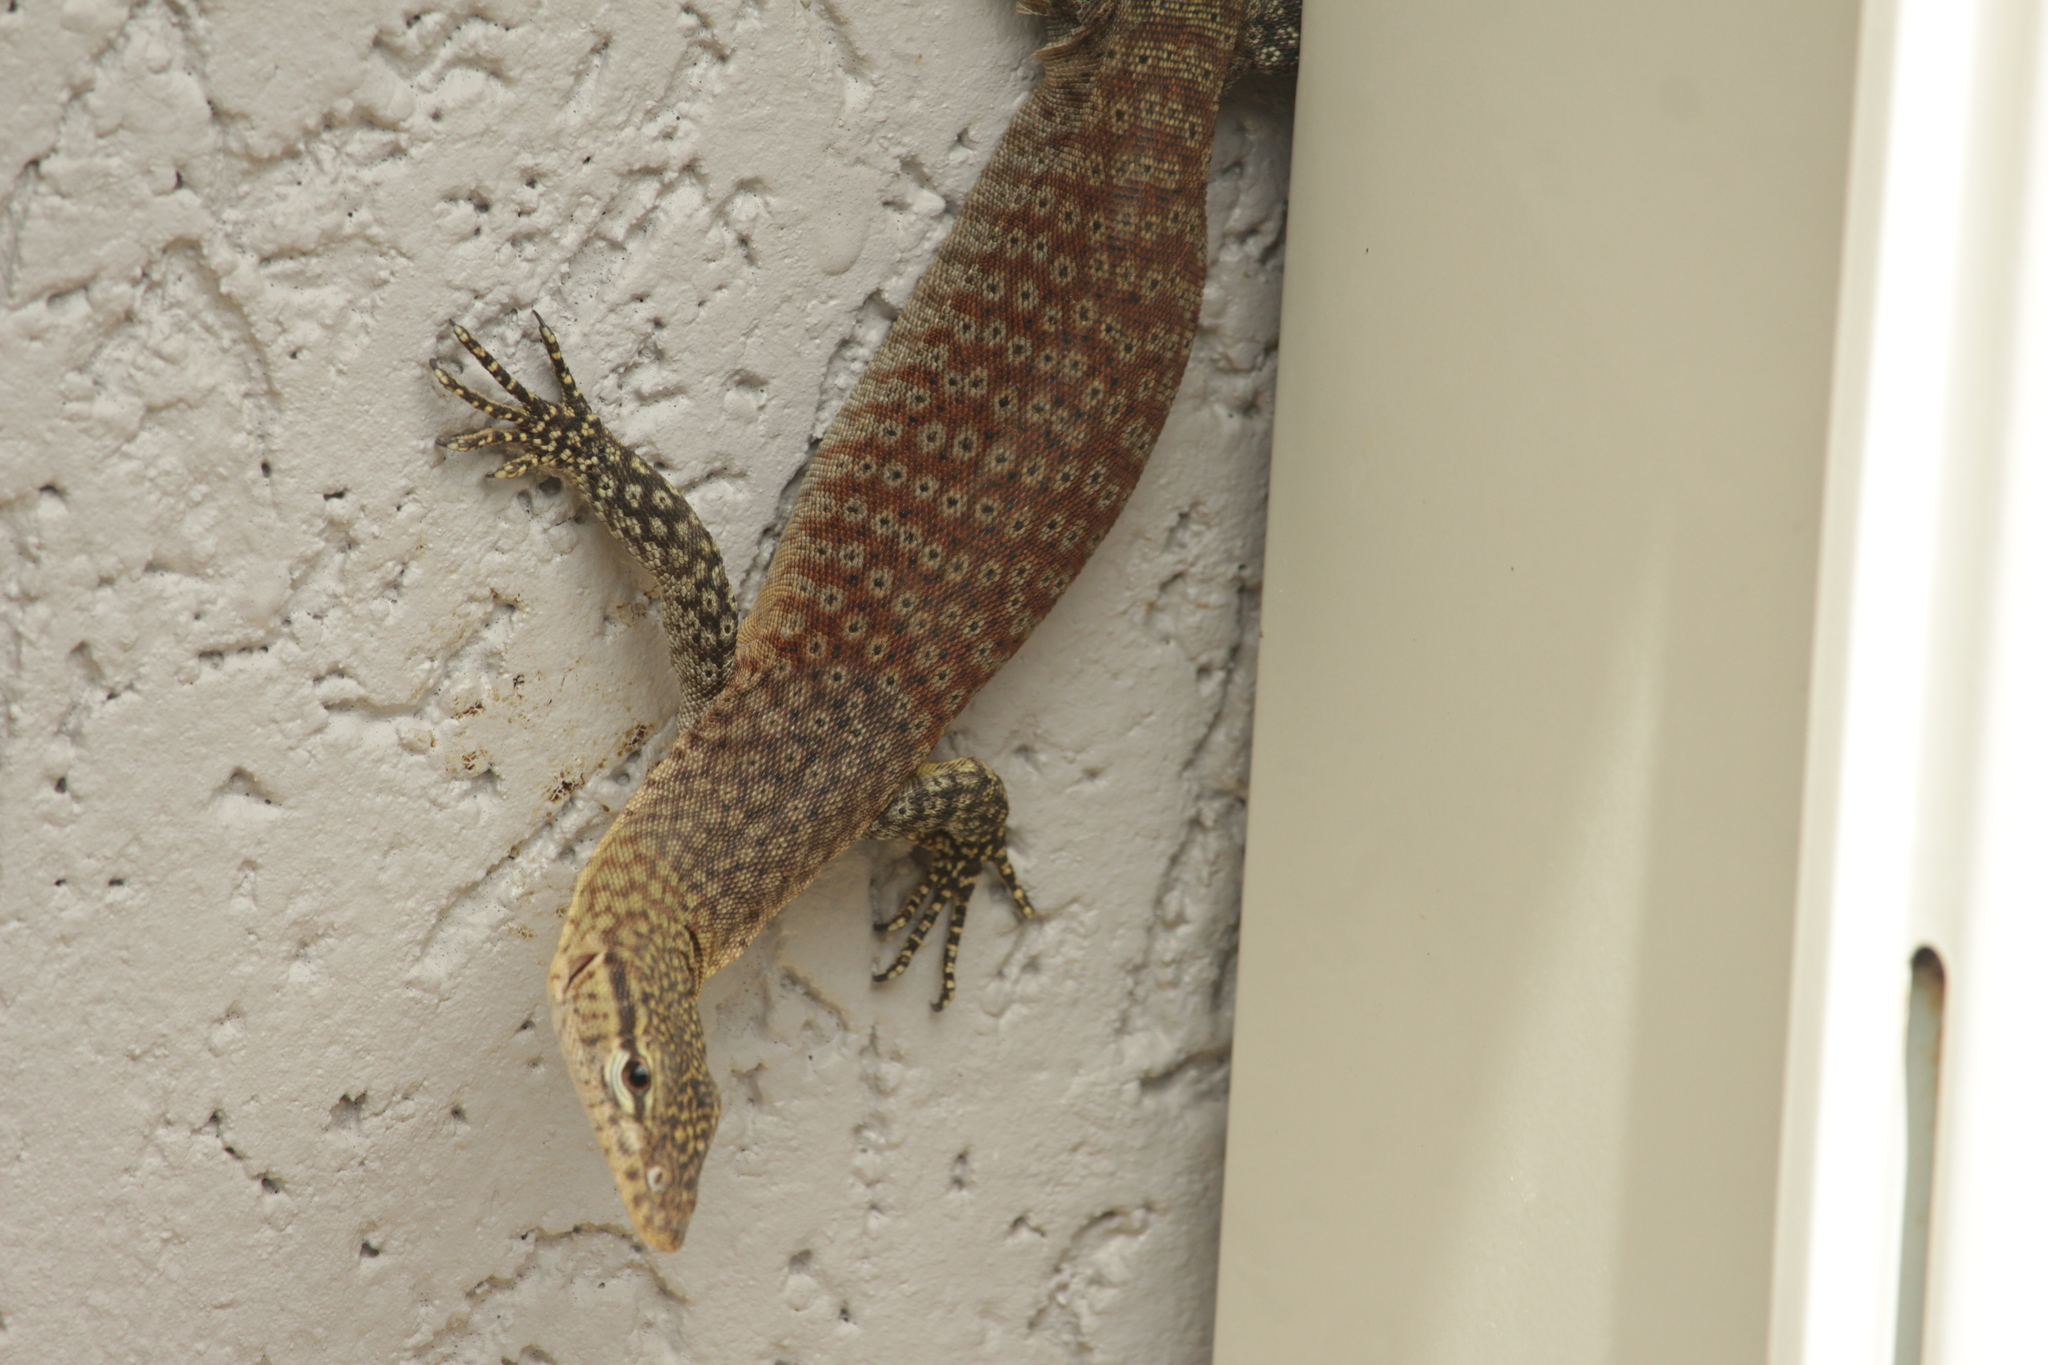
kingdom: Animalia
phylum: Chordata
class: Squamata
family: Varanidae
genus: Varanus
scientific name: Varanus tristis
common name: Arid monitor
